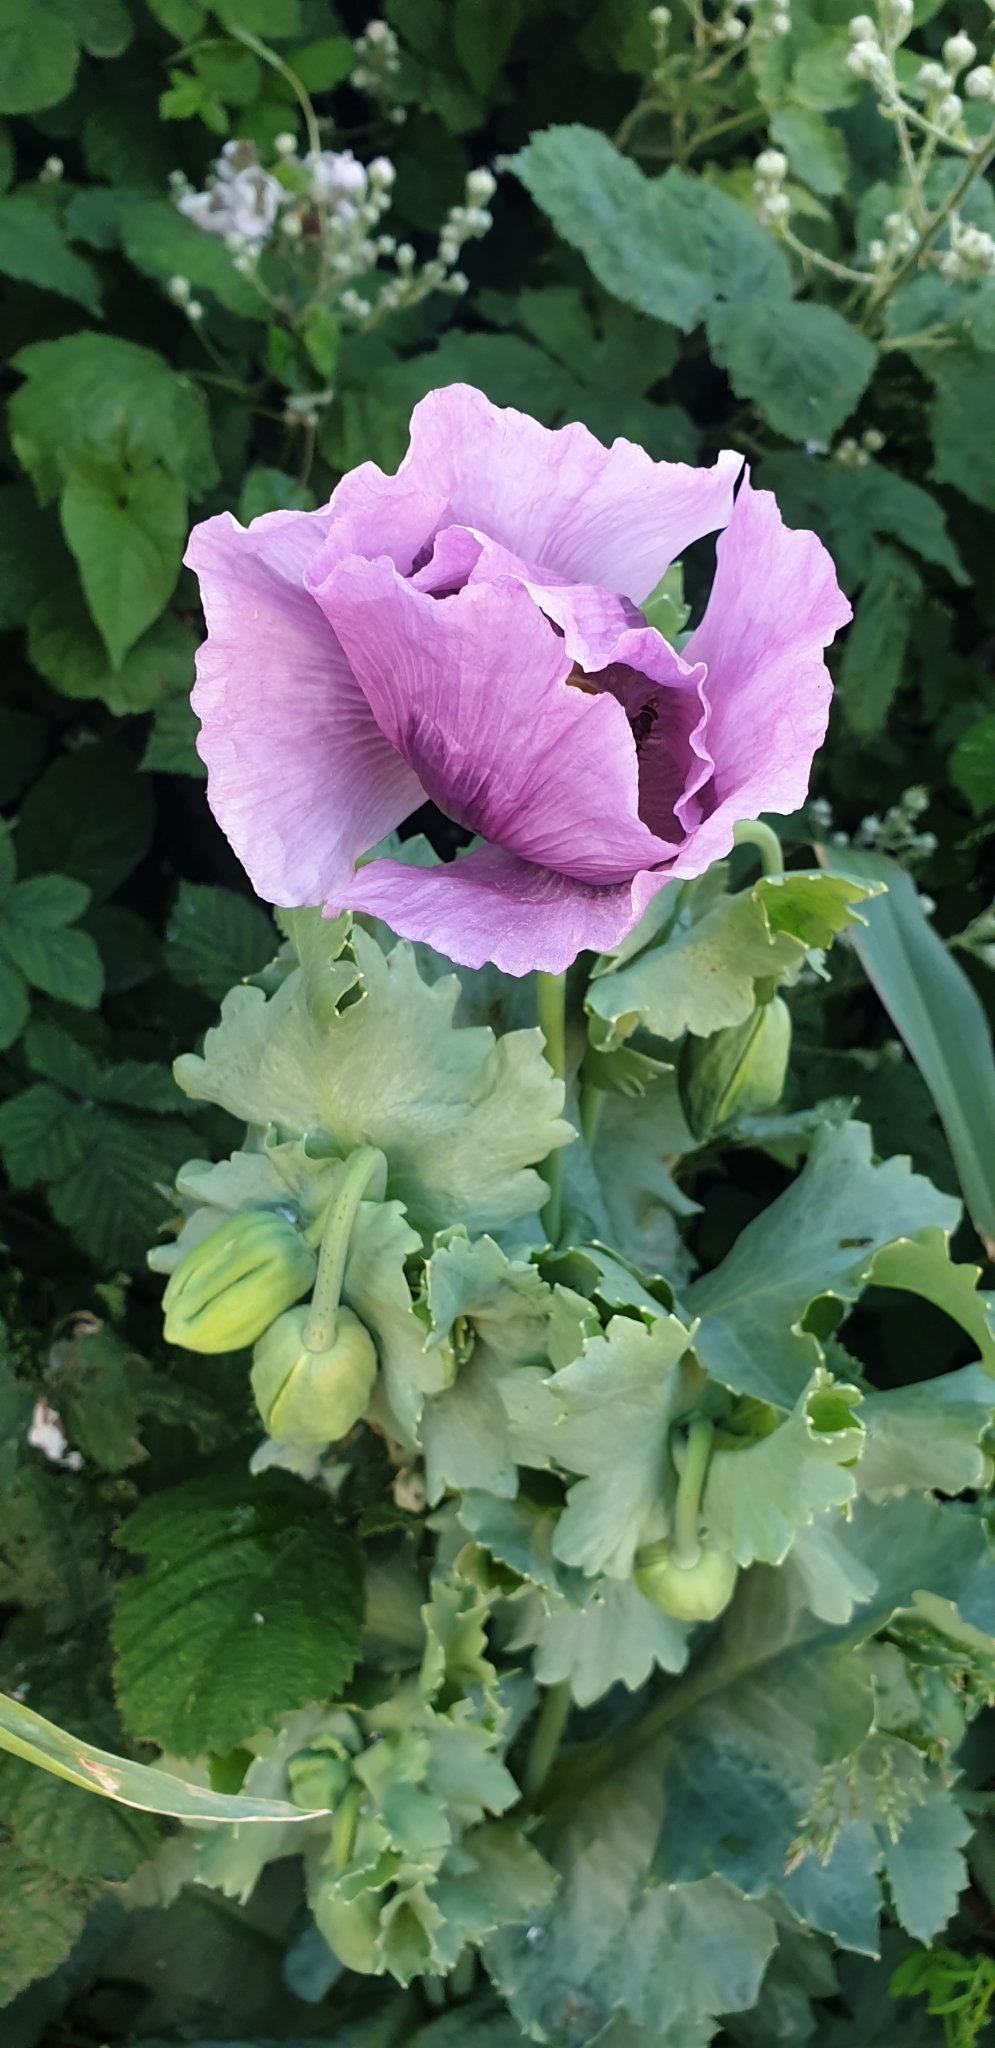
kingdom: Plantae
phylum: Tracheophyta
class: Magnoliopsida
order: Ranunculales
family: Papaveraceae
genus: Papaver
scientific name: Papaver somniferum
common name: Opium poppy
